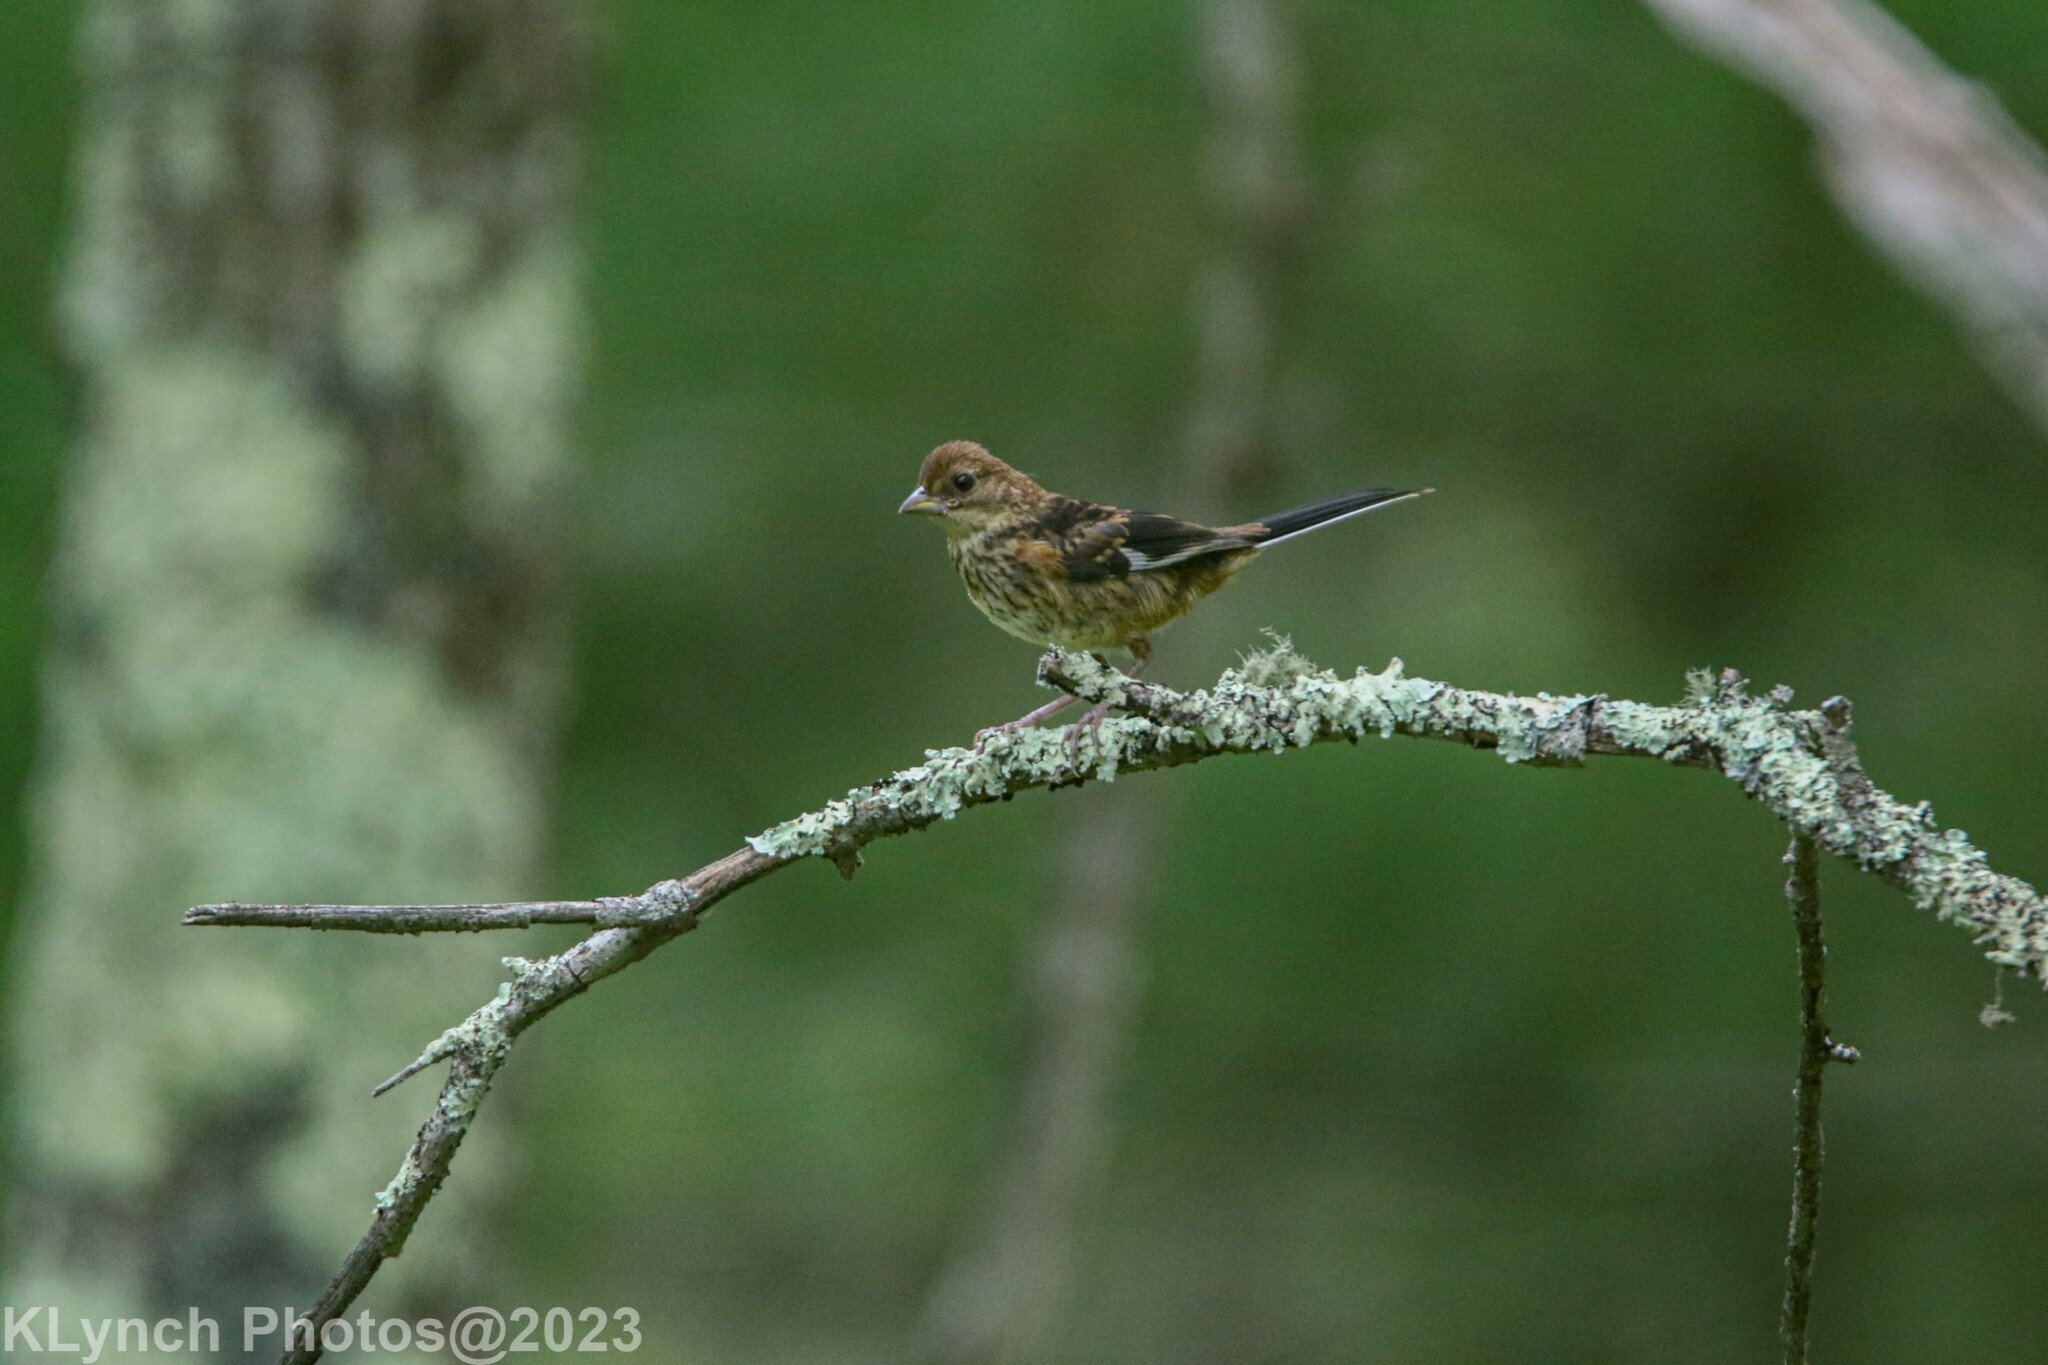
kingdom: Animalia
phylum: Chordata
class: Aves
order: Passeriformes
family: Passerellidae
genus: Pipilo
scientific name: Pipilo erythrophthalmus
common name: Eastern towhee
